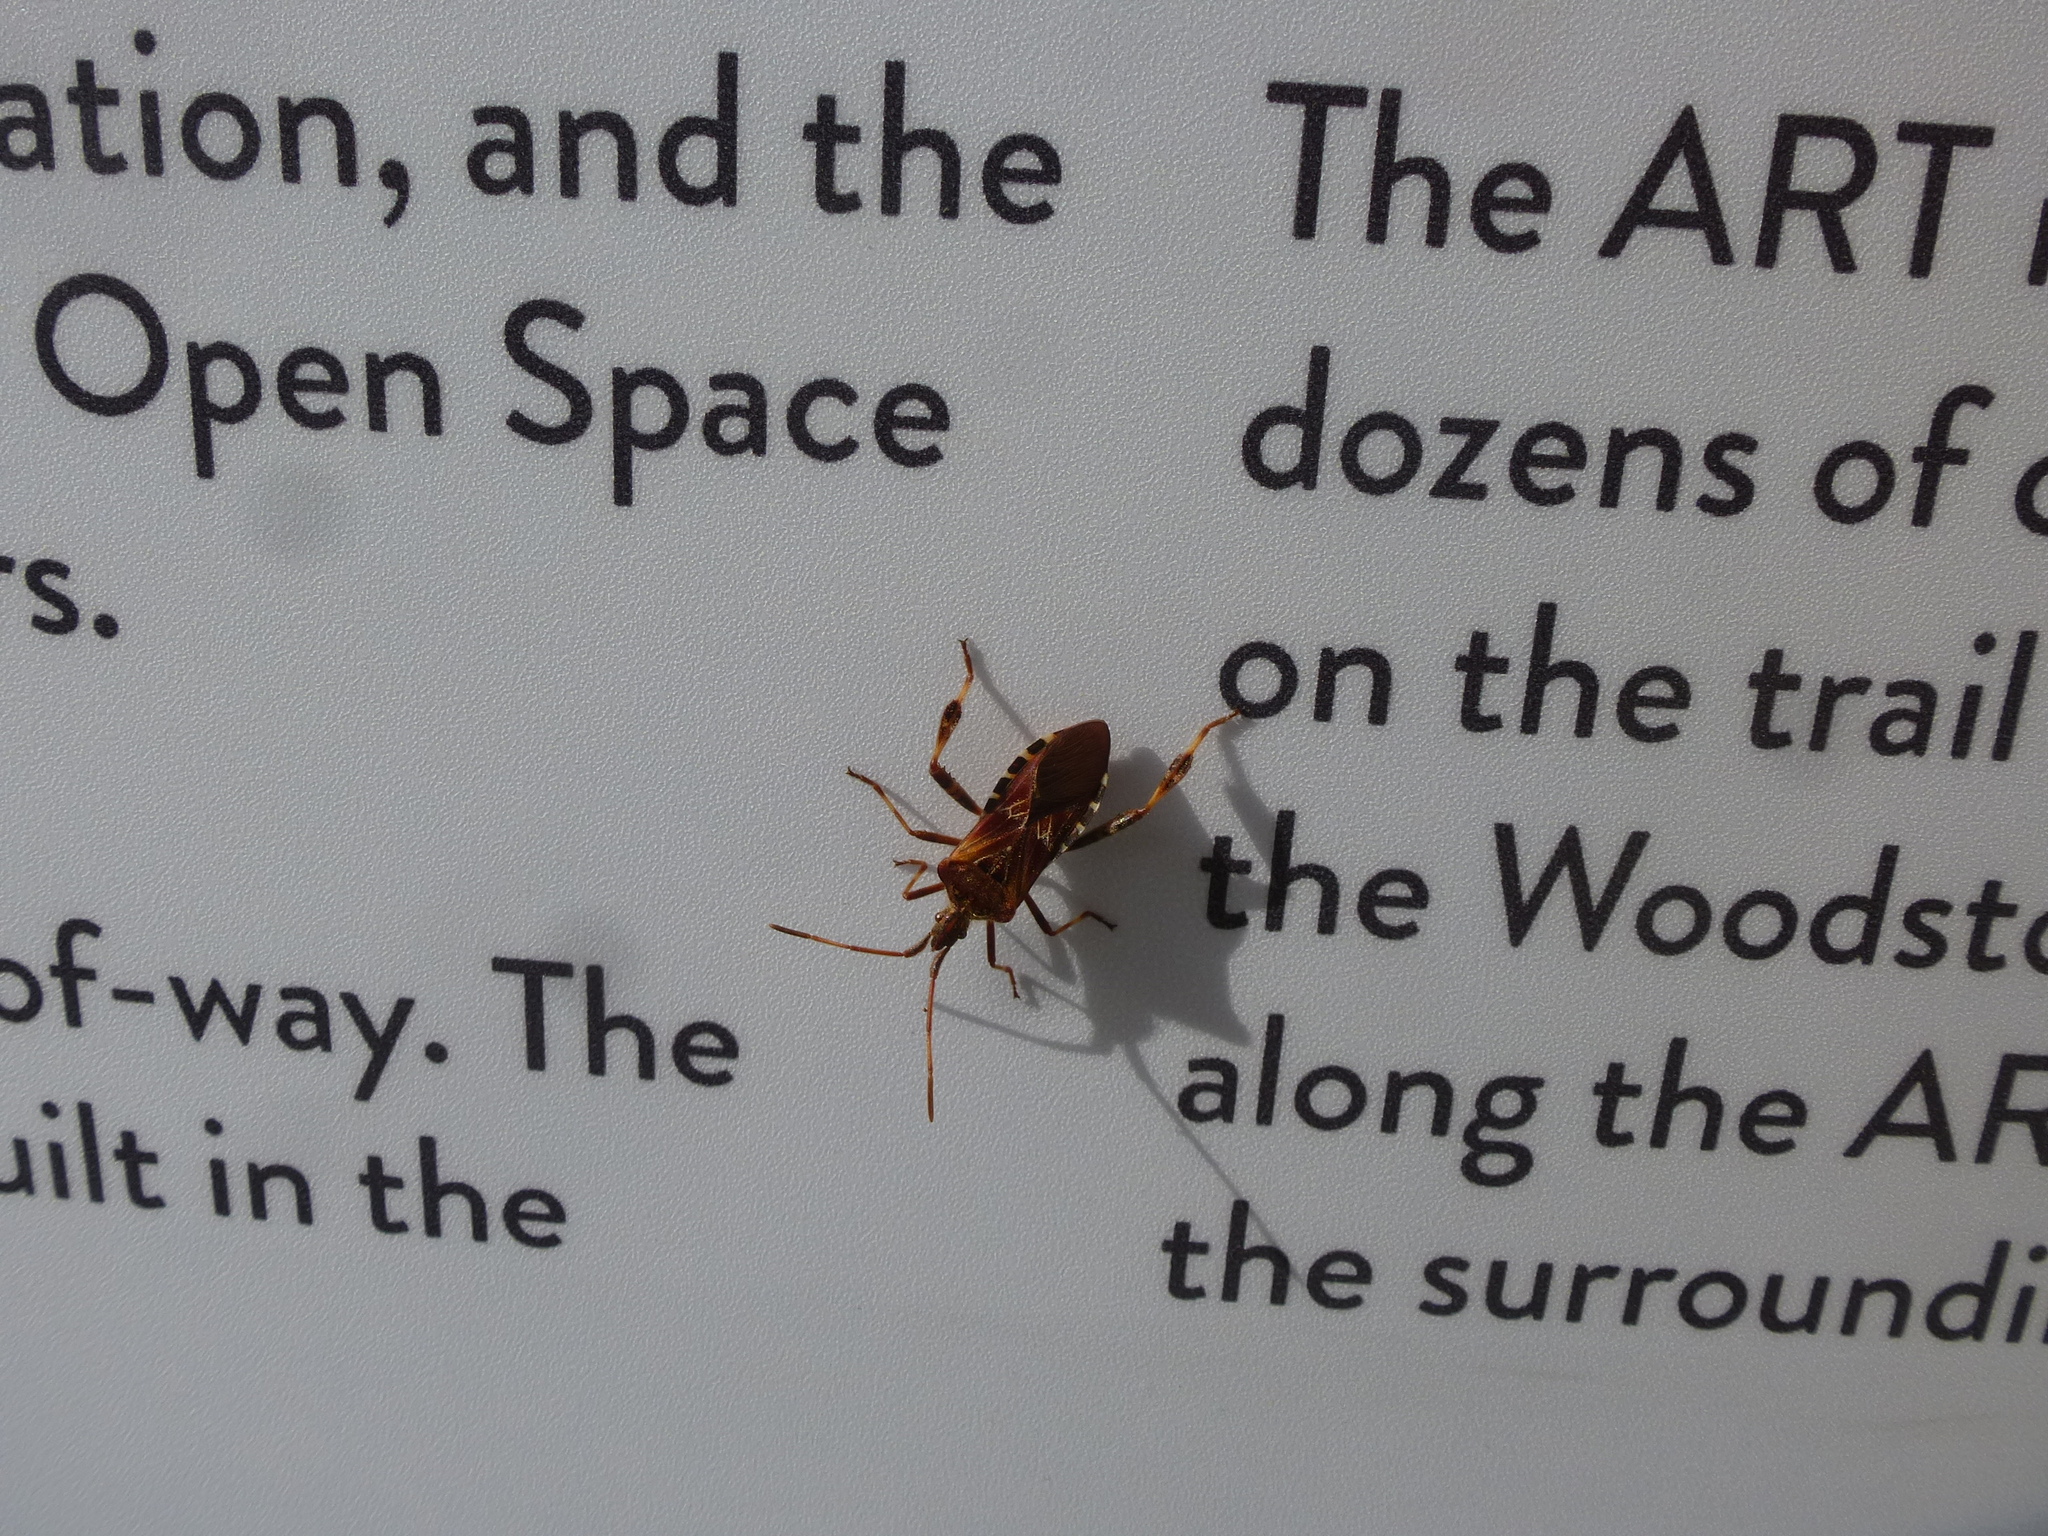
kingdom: Animalia
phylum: Arthropoda
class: Insecta
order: Hemiptera
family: Coreidae
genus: Leptoglossus
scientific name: Leptoglossus occidentalis
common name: Western conifer-seed bug
